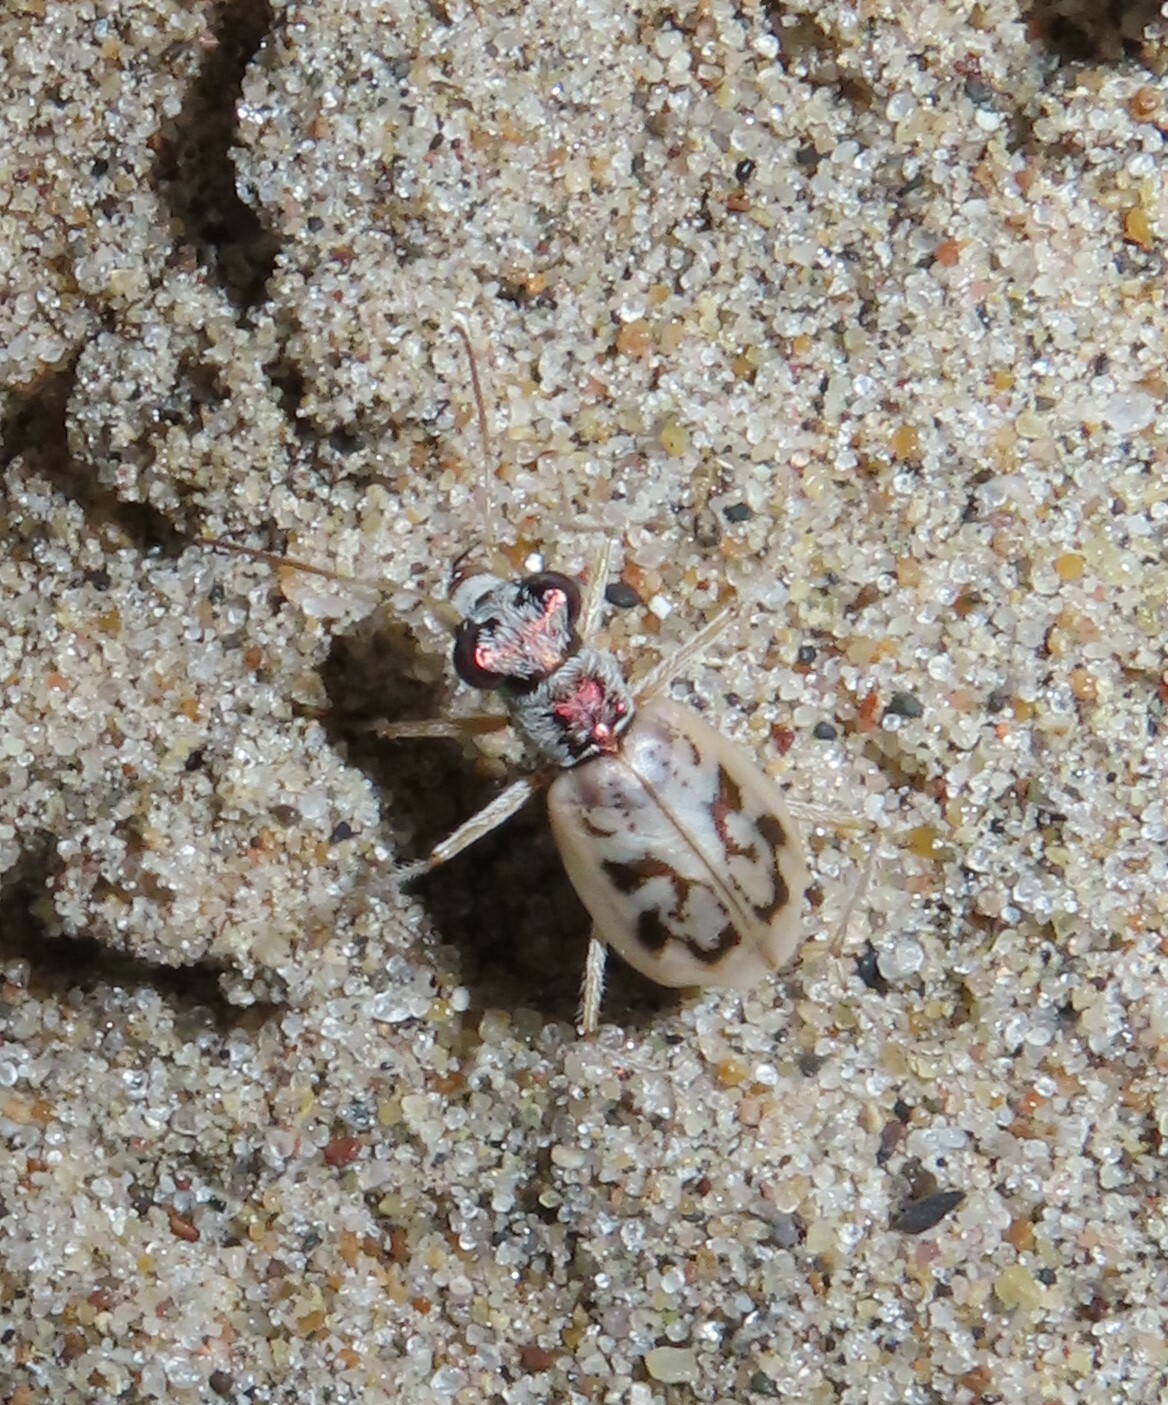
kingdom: Animalia
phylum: Arthropoda
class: Insecta
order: Coleoptera
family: Carabidae
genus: Ellipsoptera
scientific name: Ellipsoptera lepida
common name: Ghost tiger beetle
